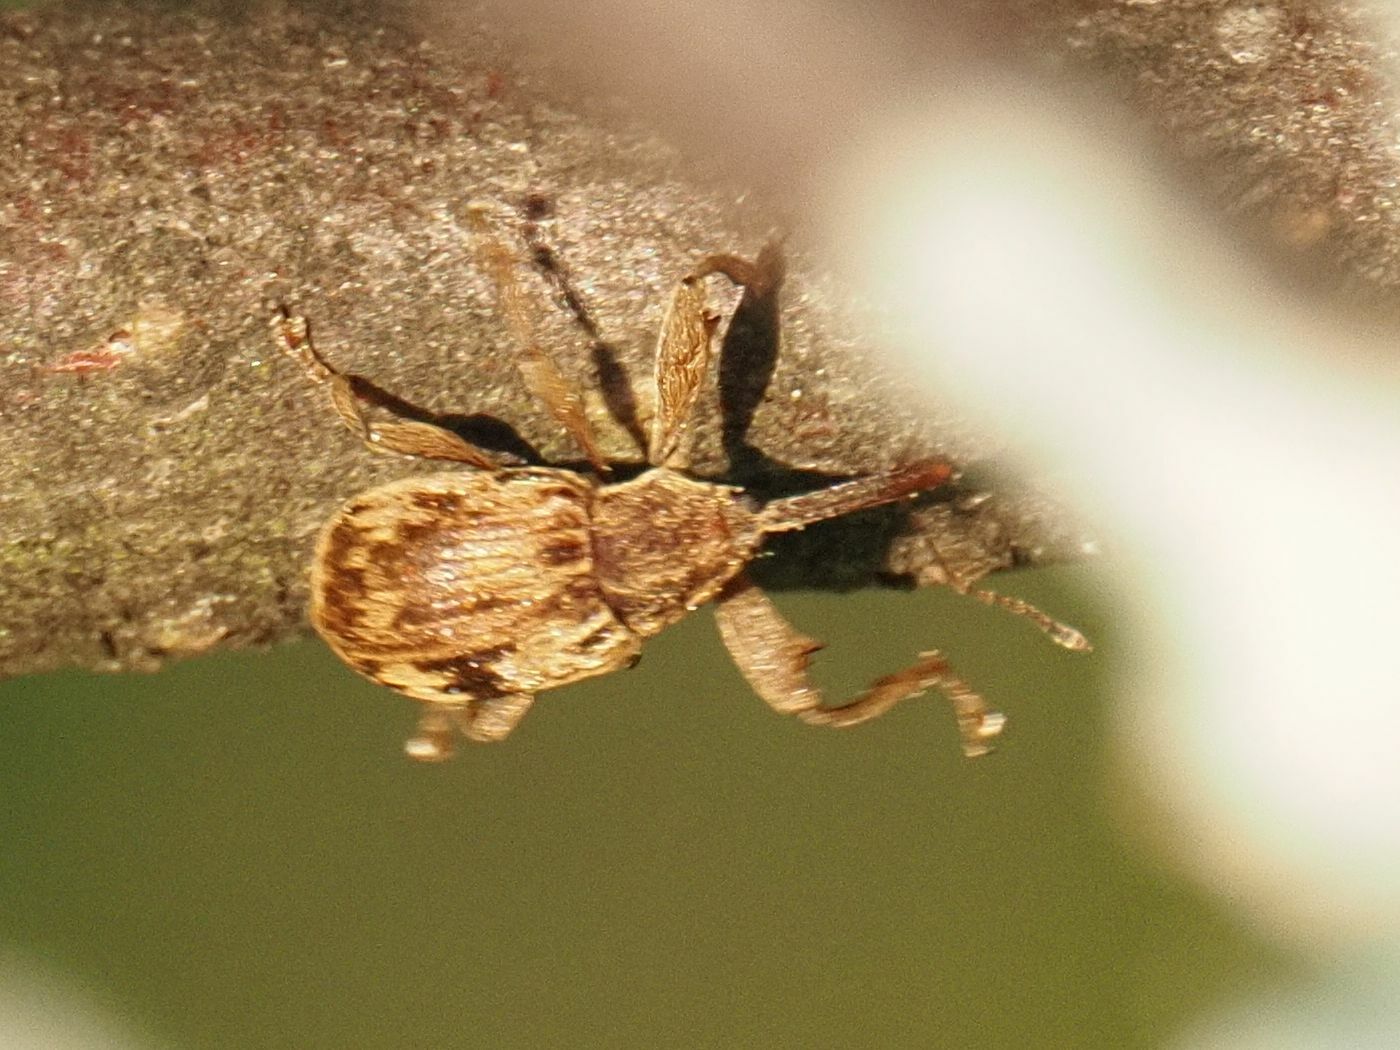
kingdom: Animalia
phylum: Arthropoda
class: Insecta
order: Coleoptera
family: Curculionidae
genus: Anthonomus
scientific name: Anthonomus rectirostris
